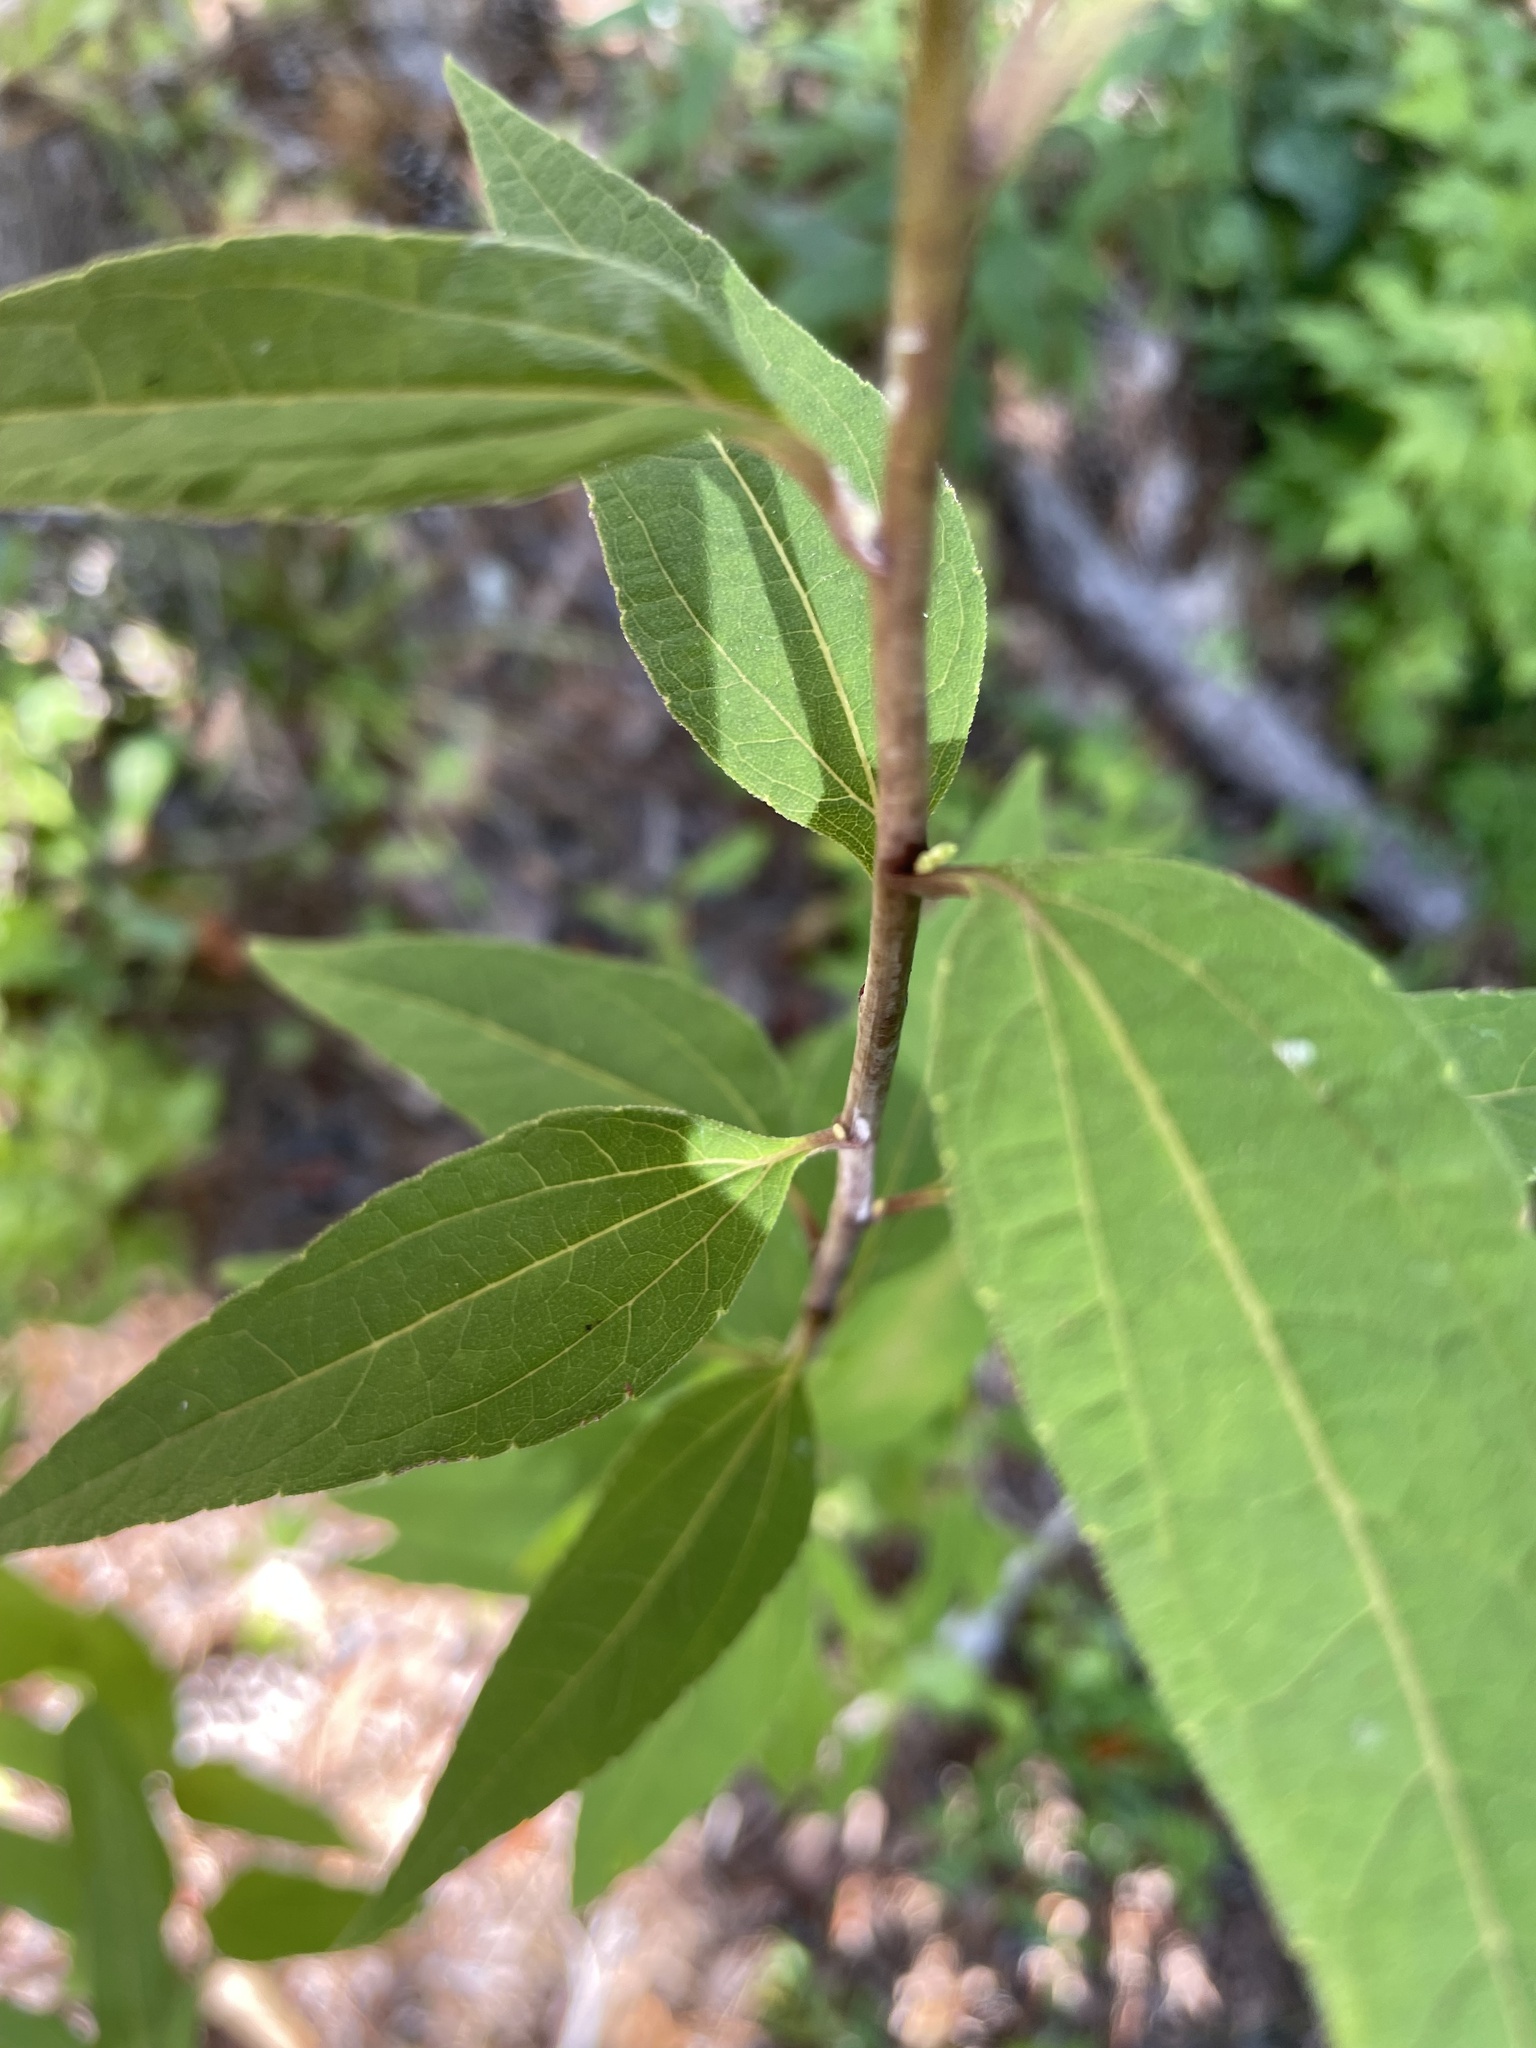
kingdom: Plantae
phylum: Tracheophyta
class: Magnoliopsida
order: Asterales
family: Asteraceae
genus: Helianthus
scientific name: Helianthus microcephalus
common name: Woodland sunflower
